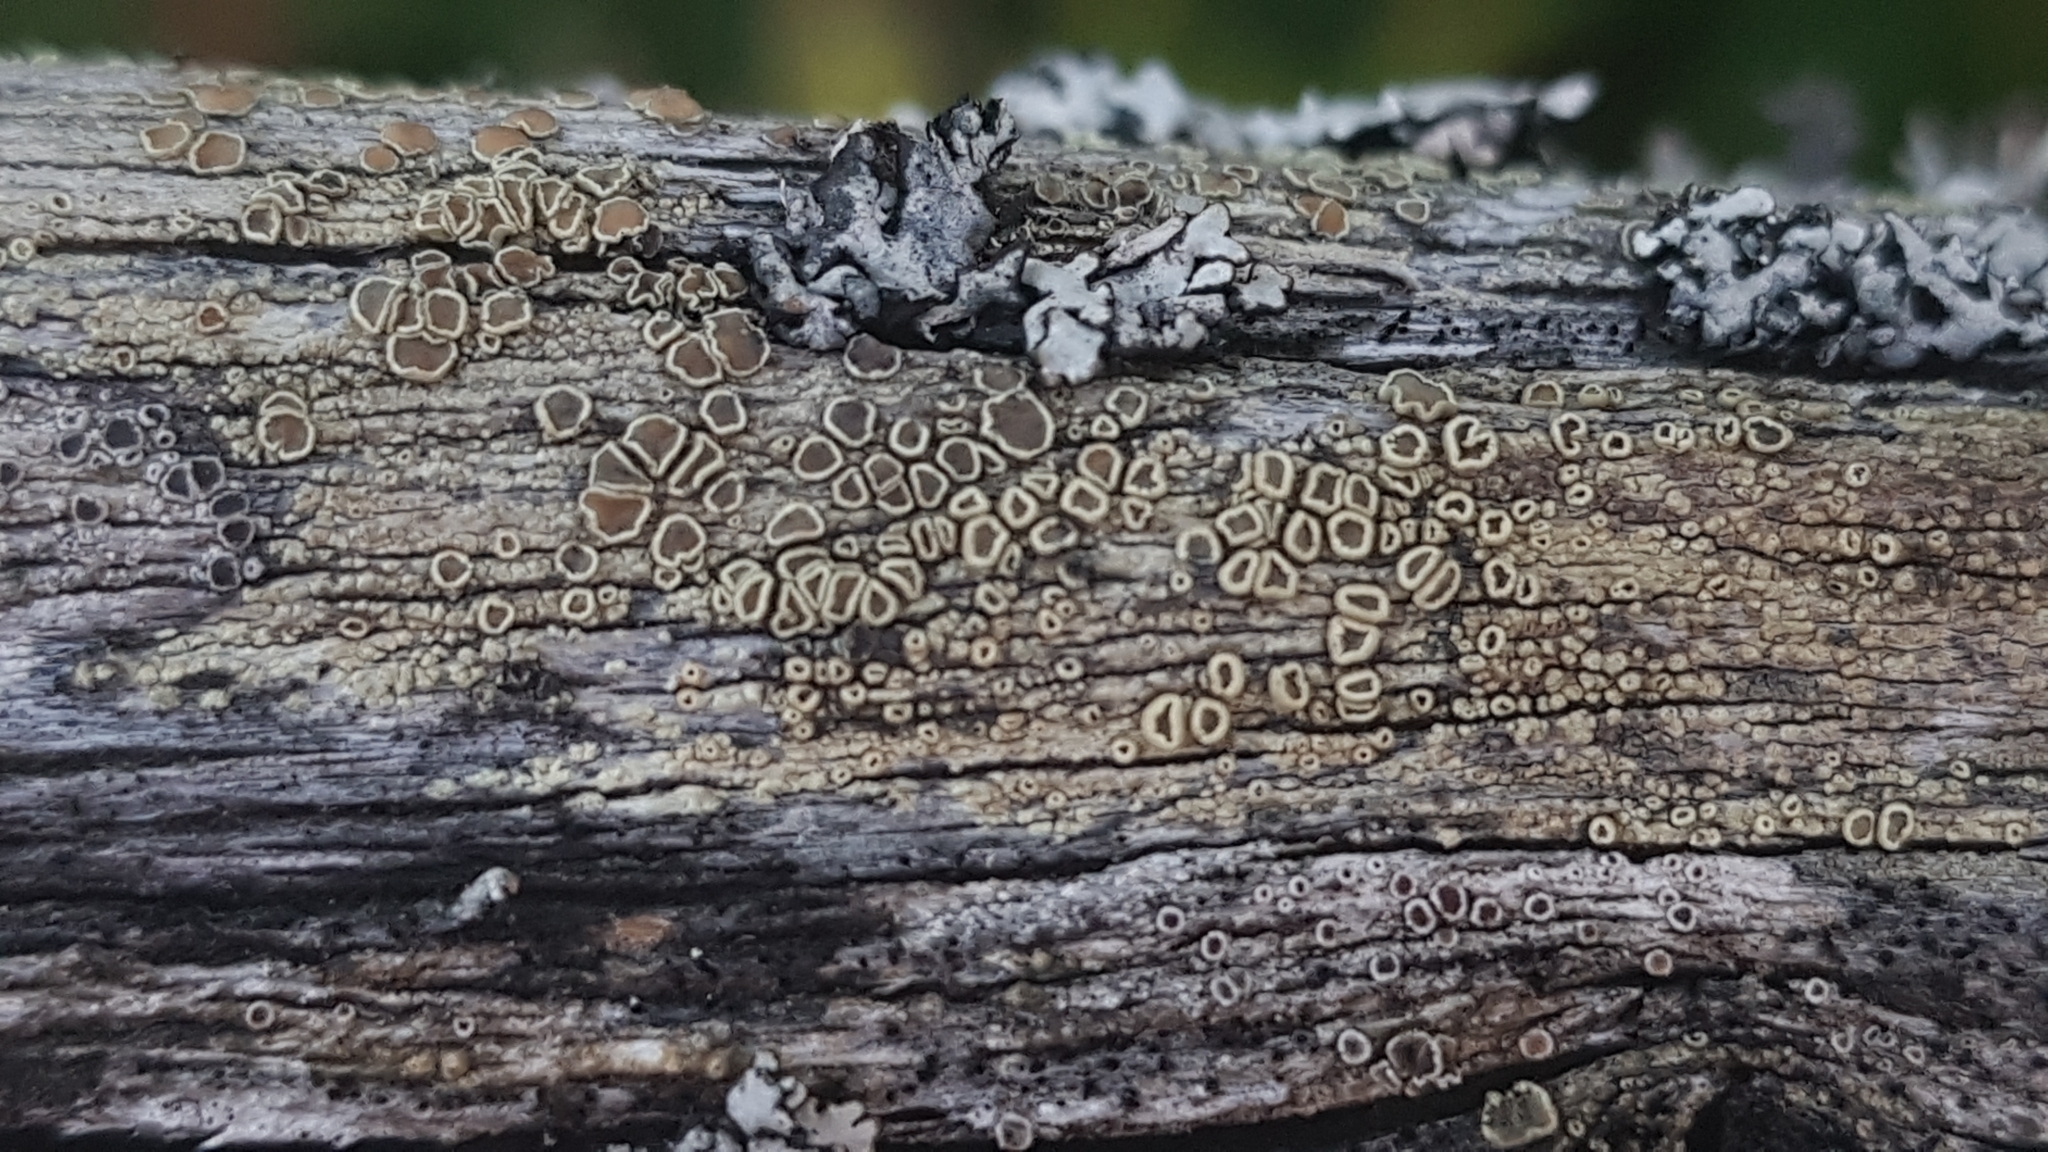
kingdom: Fungi
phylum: Ascomycota
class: Lecanoromycetes
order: Lecanorales
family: Lecanoraceae
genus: Straminella
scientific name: Straminella varia
